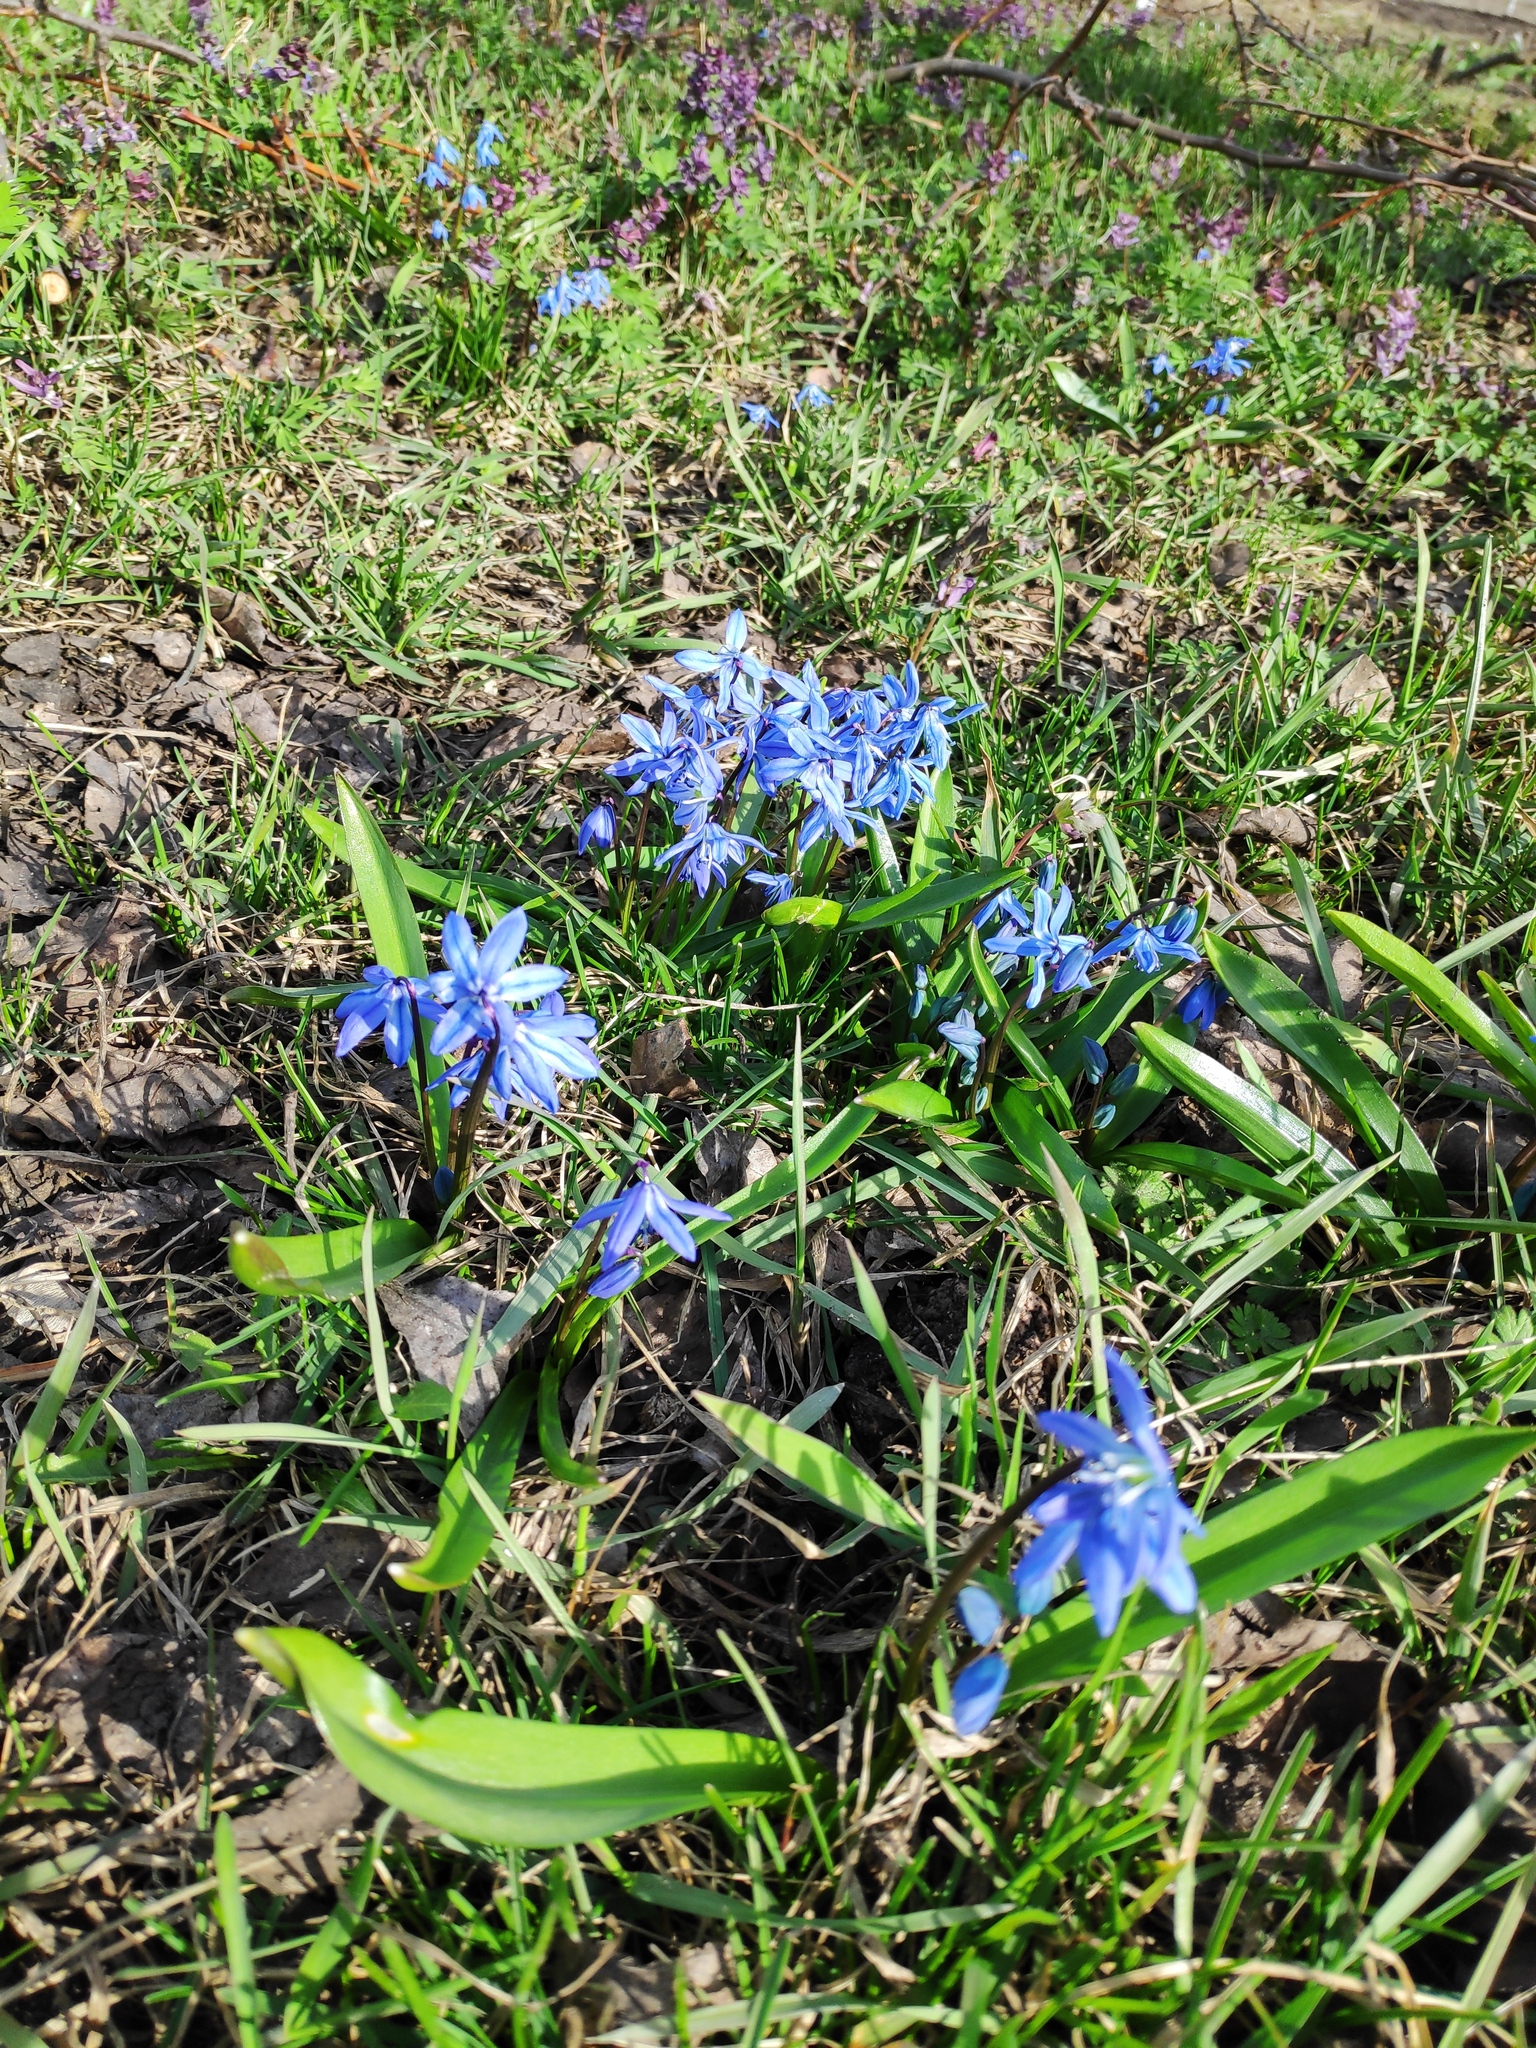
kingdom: Plantae
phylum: Tracheophyta
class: Liliopsida
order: Asparagales
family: Asparagaceae
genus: Scilla
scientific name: Scilla siberica
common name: Siberian squill
